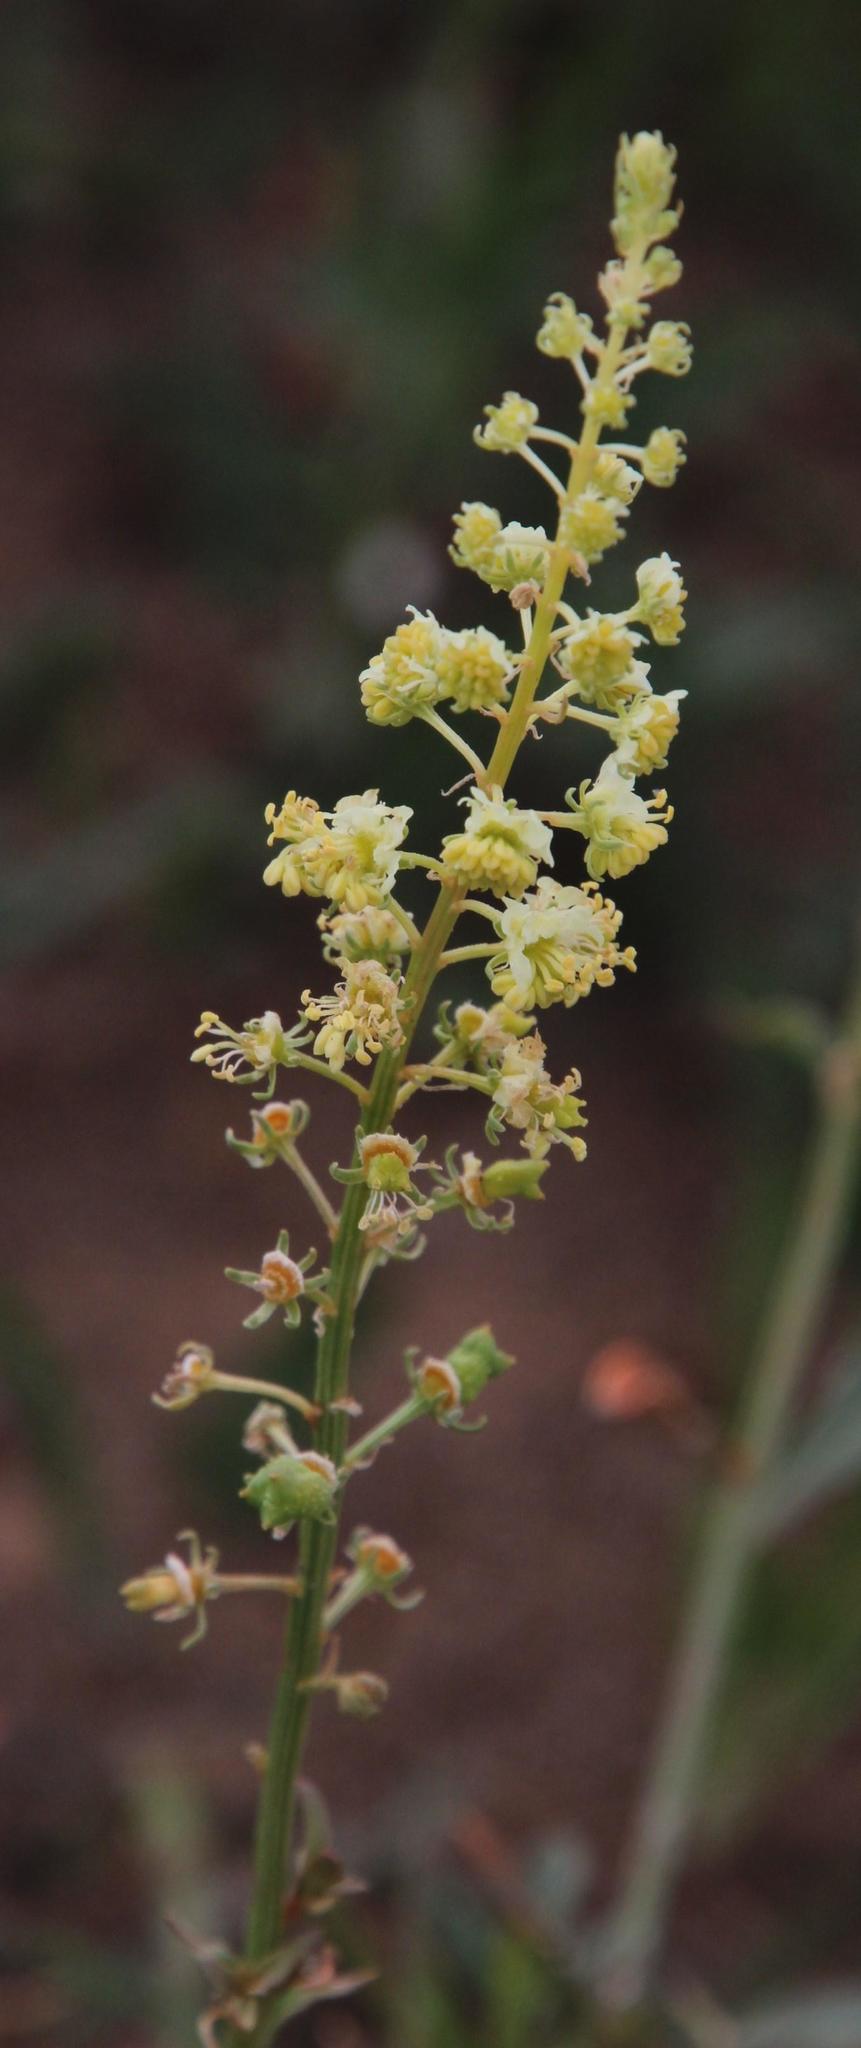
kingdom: Plantae
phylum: Tracheophyta
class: Magnoliopsida
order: Brassicales
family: Resedaceae
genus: Reseda
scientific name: Reseda lutea
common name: Wild mignonette
